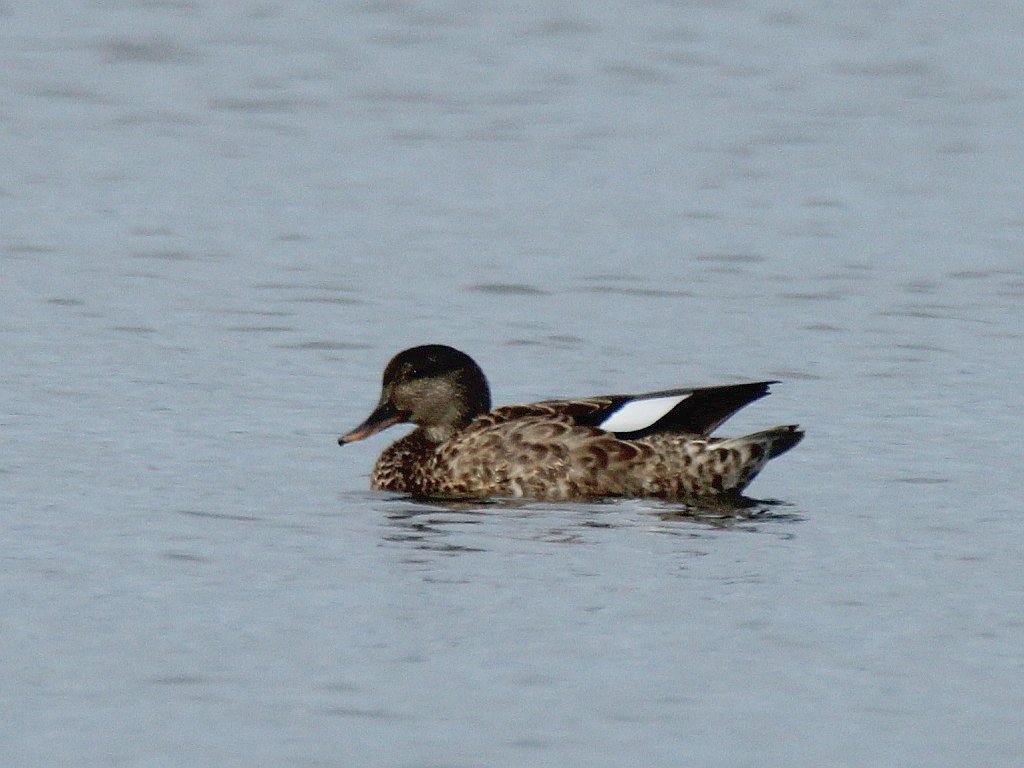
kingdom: Animalia
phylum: Chordata
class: Aves
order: Anseriformes
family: Anatidae
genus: Mareca
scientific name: Mareca strepera
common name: Gadwall
